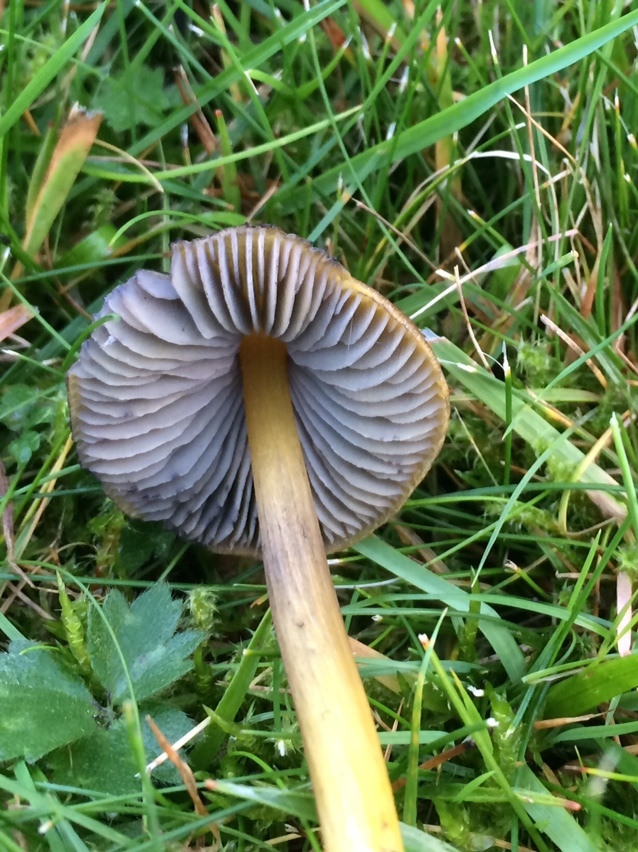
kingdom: Fungi
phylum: Basidiomycota
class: Agaricomycetes
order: Agaricales
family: Hygrophoraceae
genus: Hygrocybe
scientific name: Hygrocybe conica
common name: Blackening wax-cap
